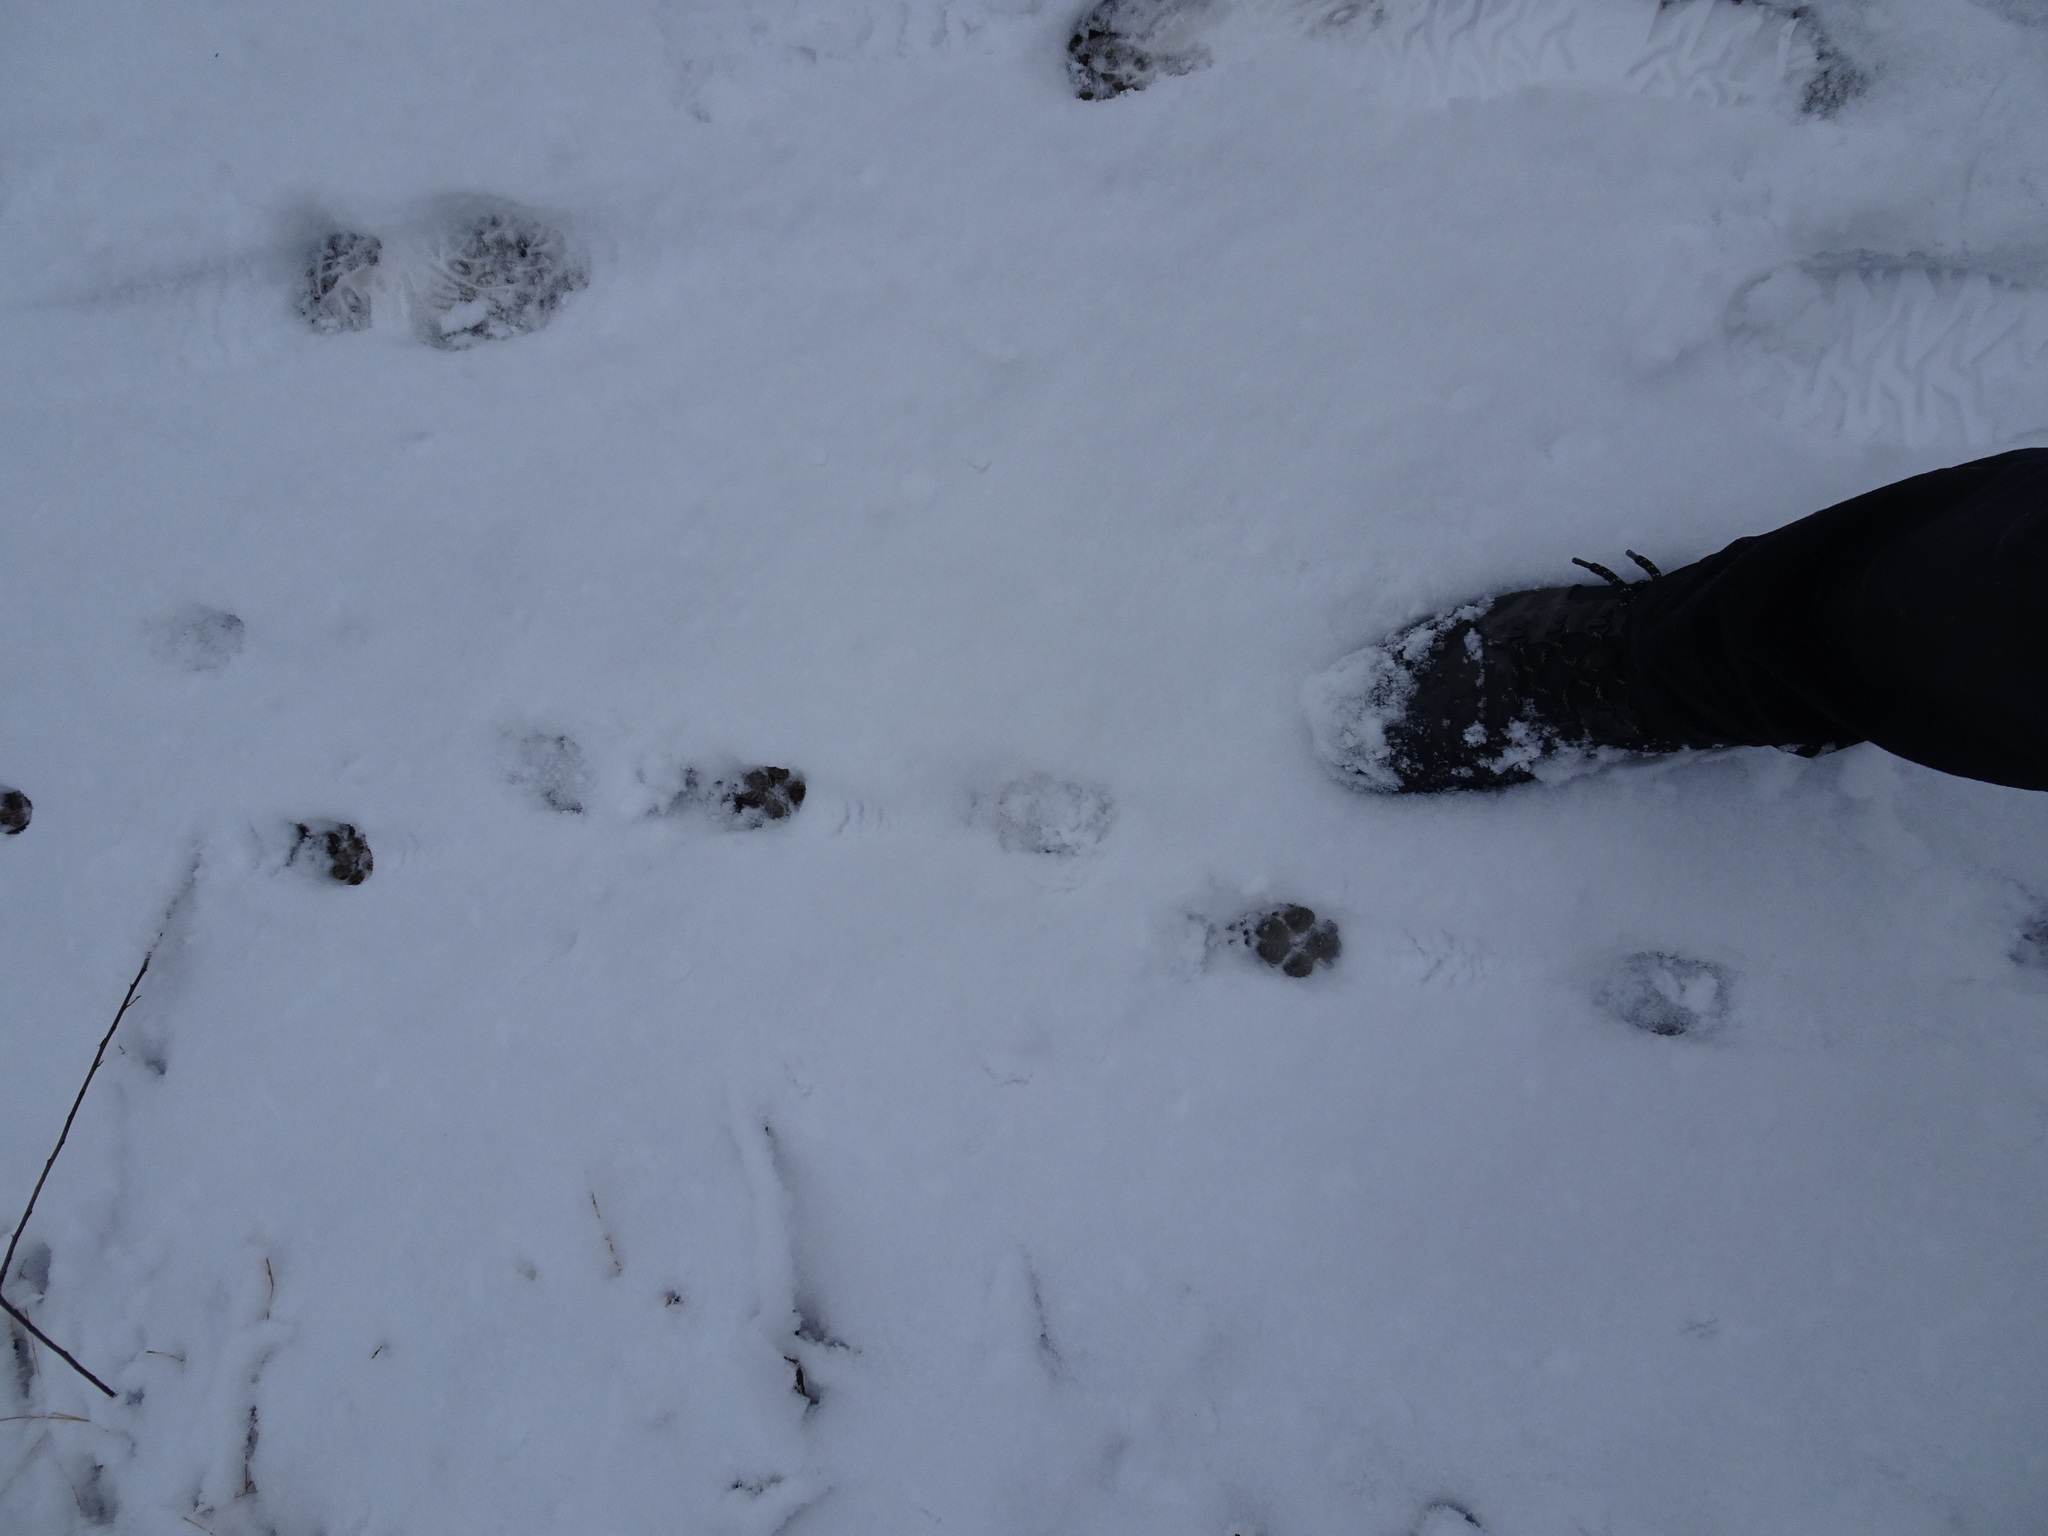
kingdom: Animalia
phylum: Chordata
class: Mammalia
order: Carnivora
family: Canidae
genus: Canis
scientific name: Canis latrans
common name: Coyote
